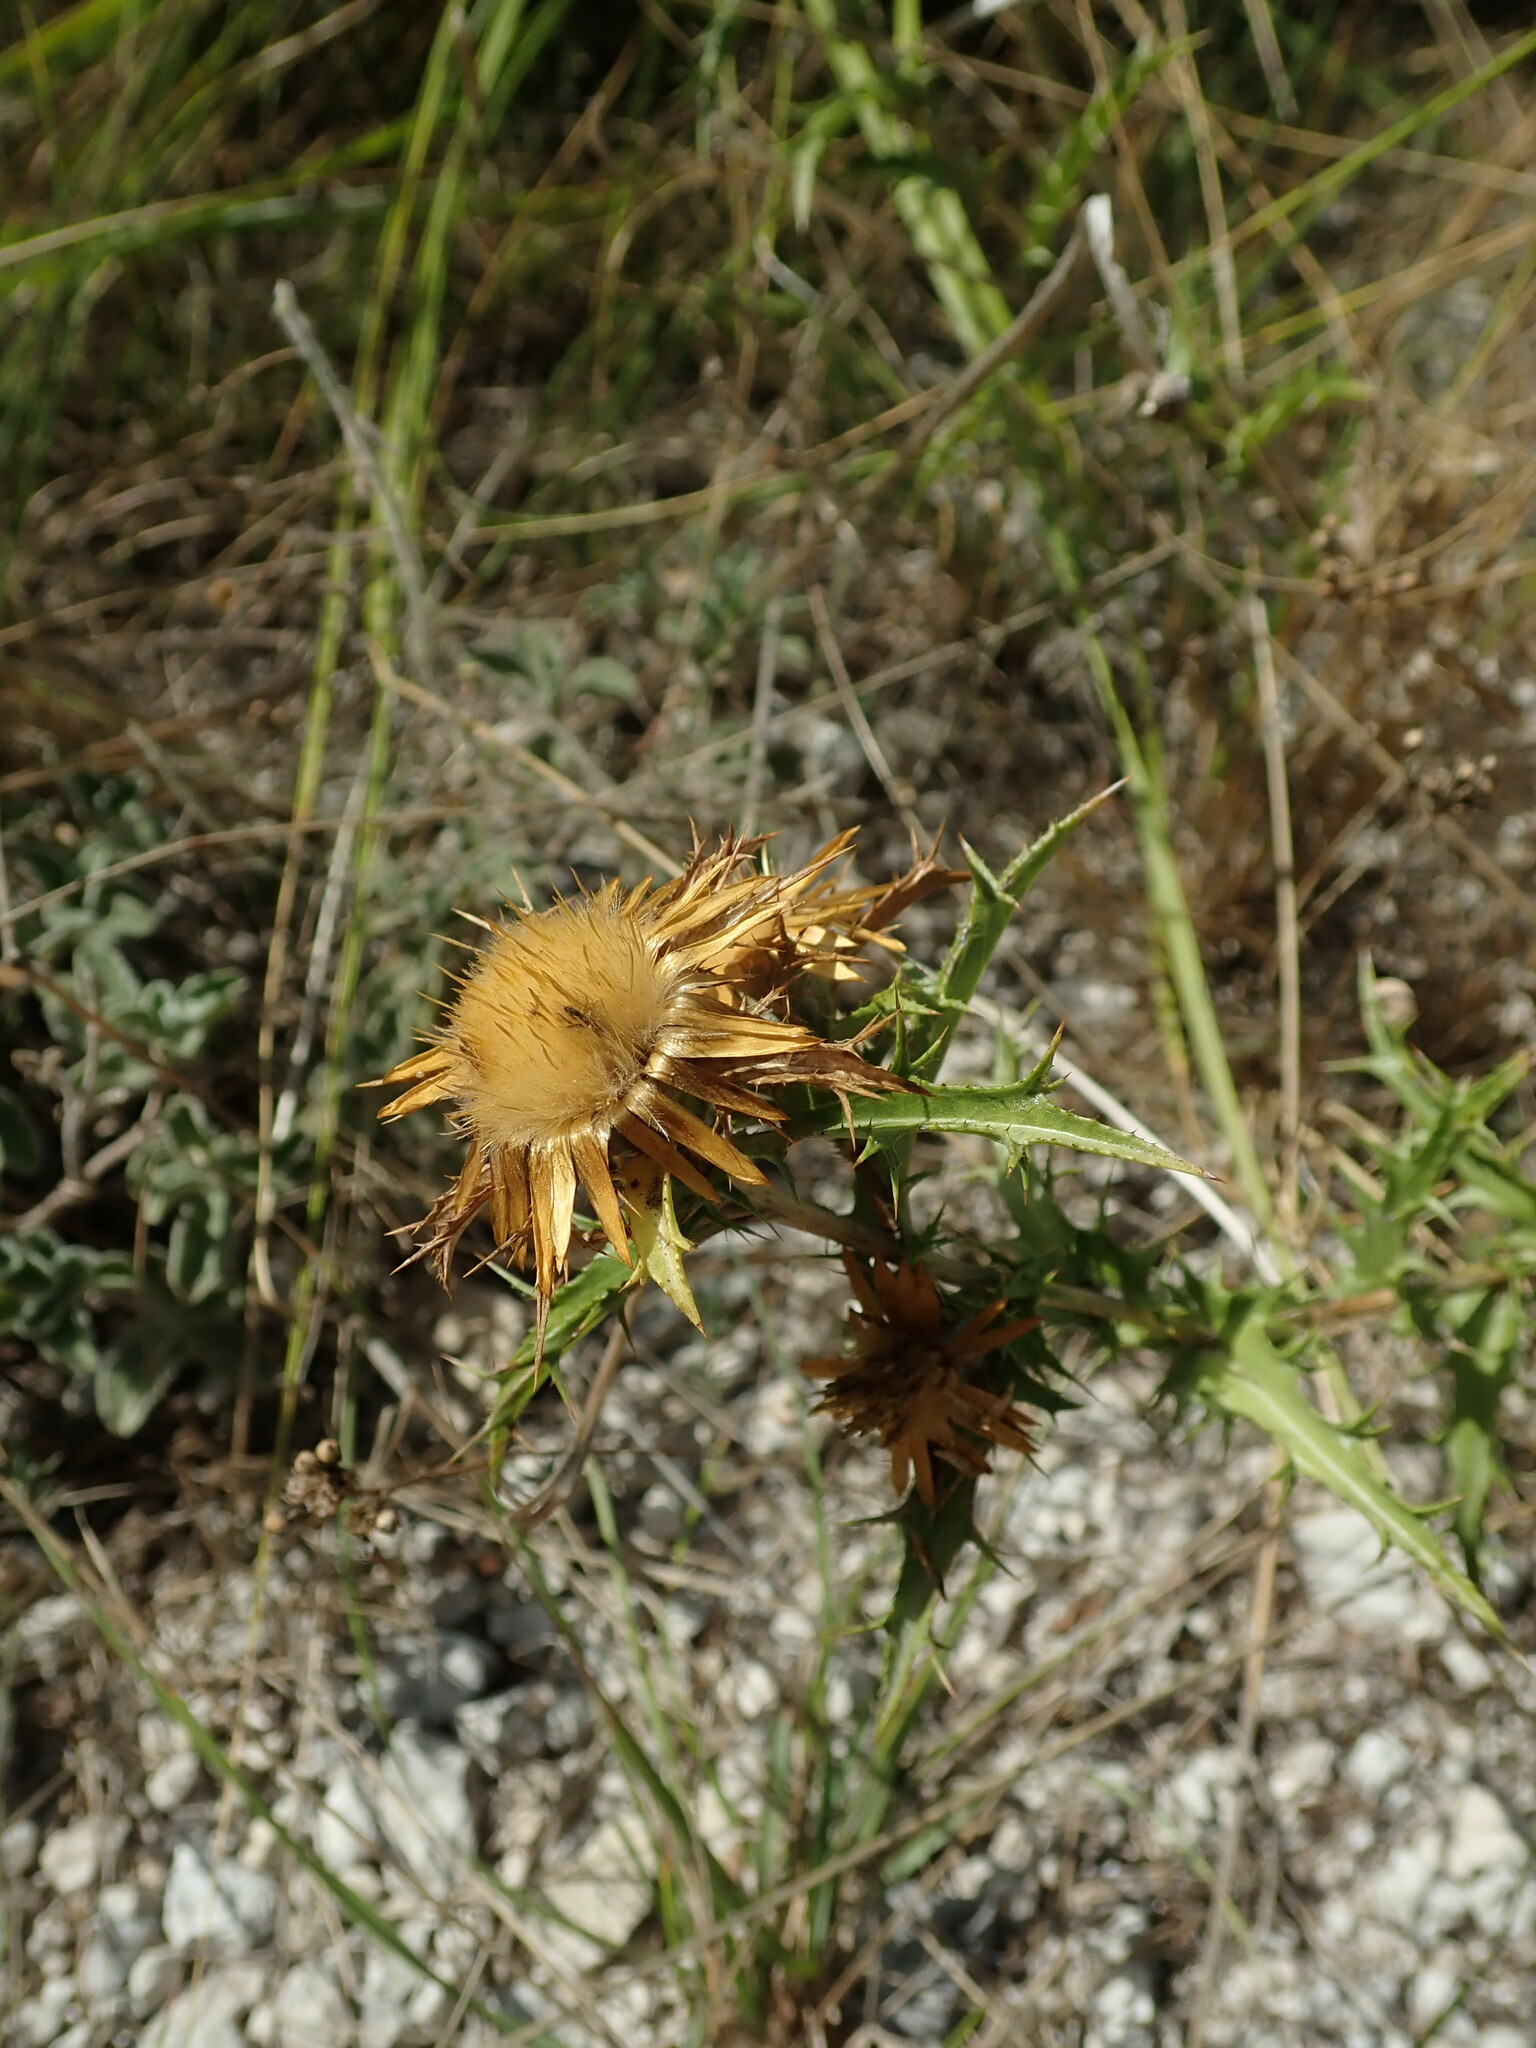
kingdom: Plantae
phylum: Tracheophyta
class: Magnoliopsida
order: Asterales
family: Asteraceae
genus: Carlina
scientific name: Carlina corymbosa
